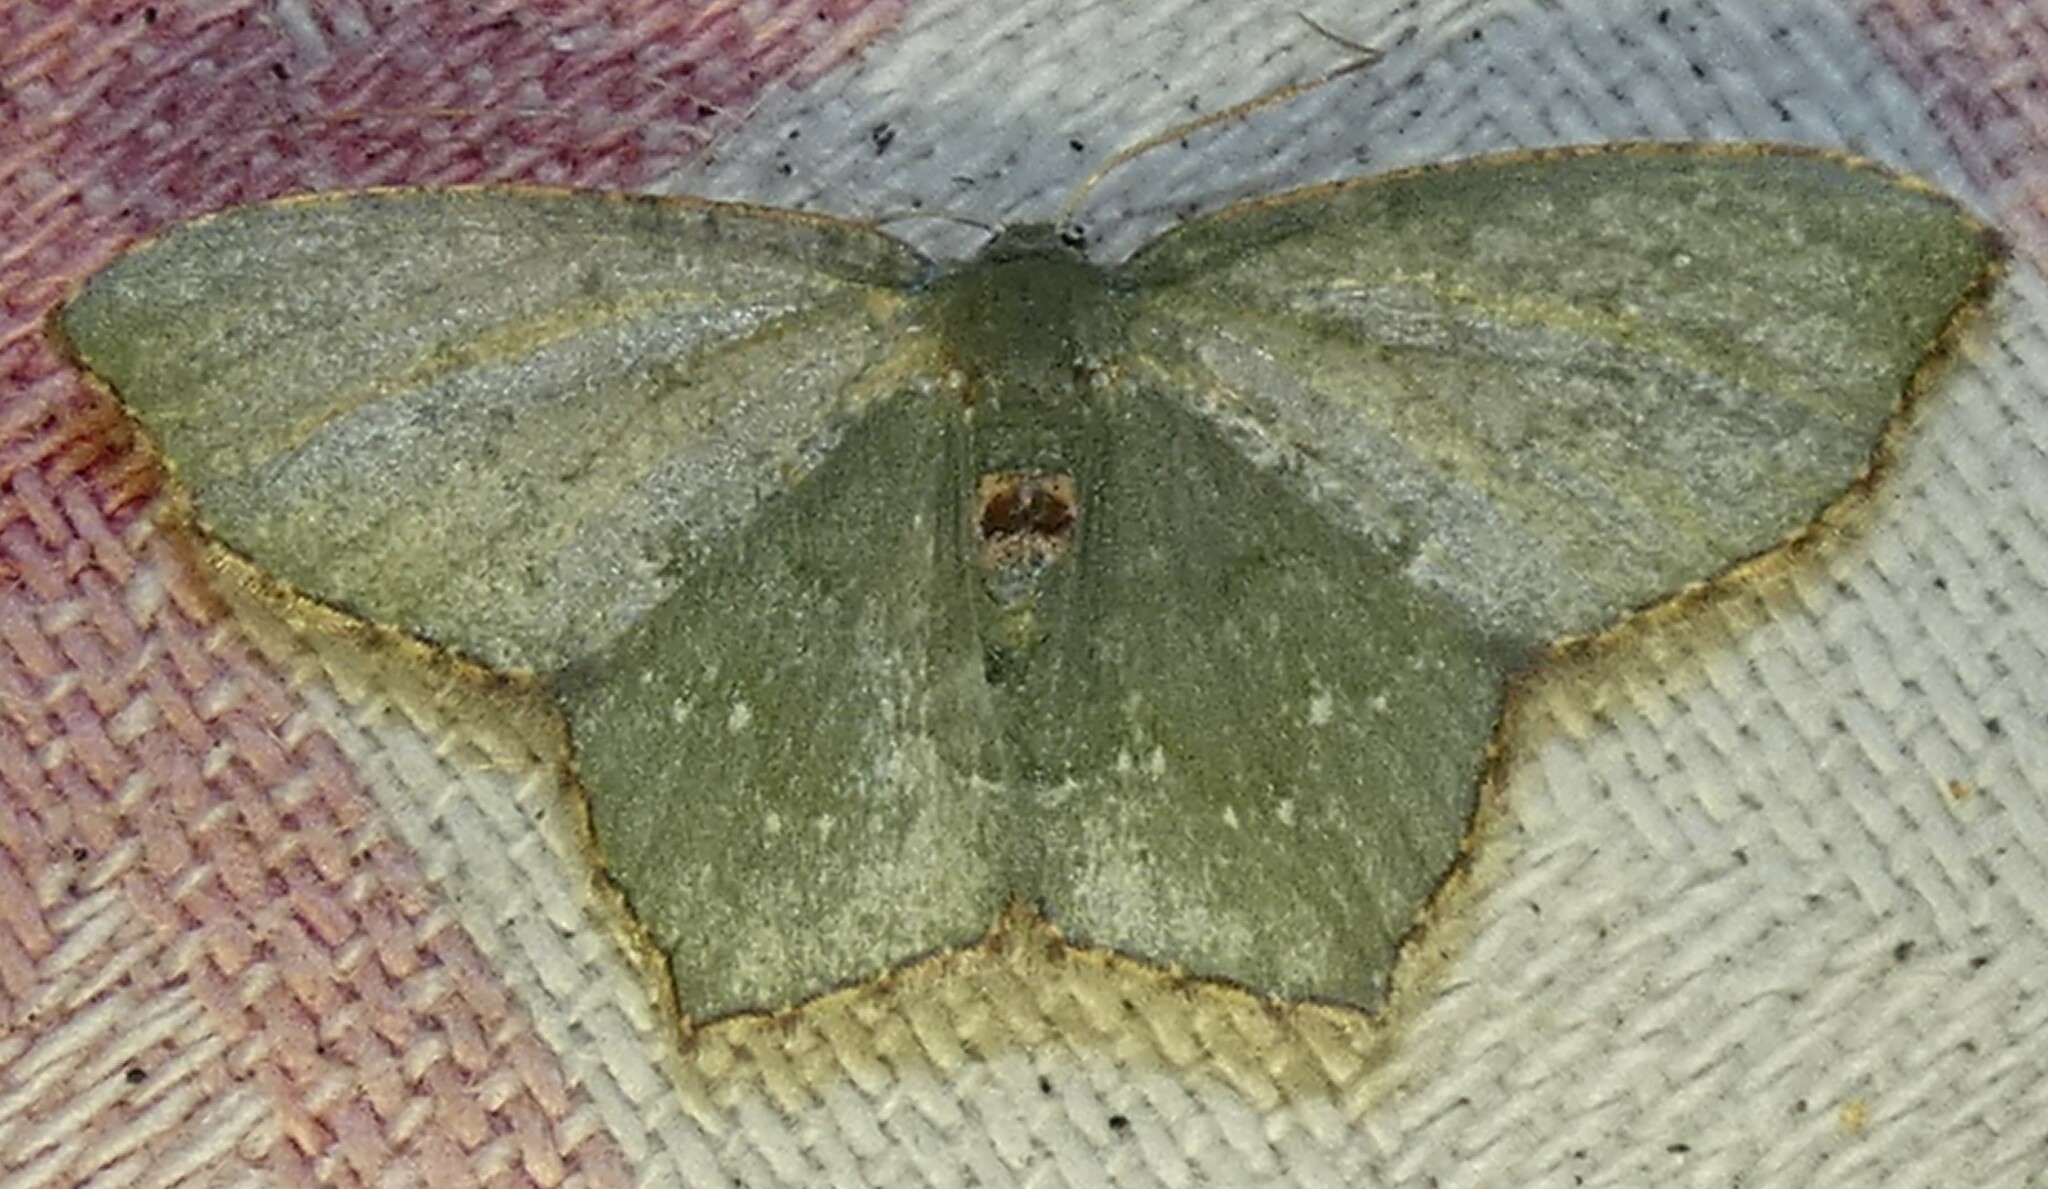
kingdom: Animalia
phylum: Arthropoda
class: Insecta
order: Lepidoptera
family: Geometridae
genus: Chloropteryx
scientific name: Chloropteryx tepperaria
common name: Angle winged emerald moth
